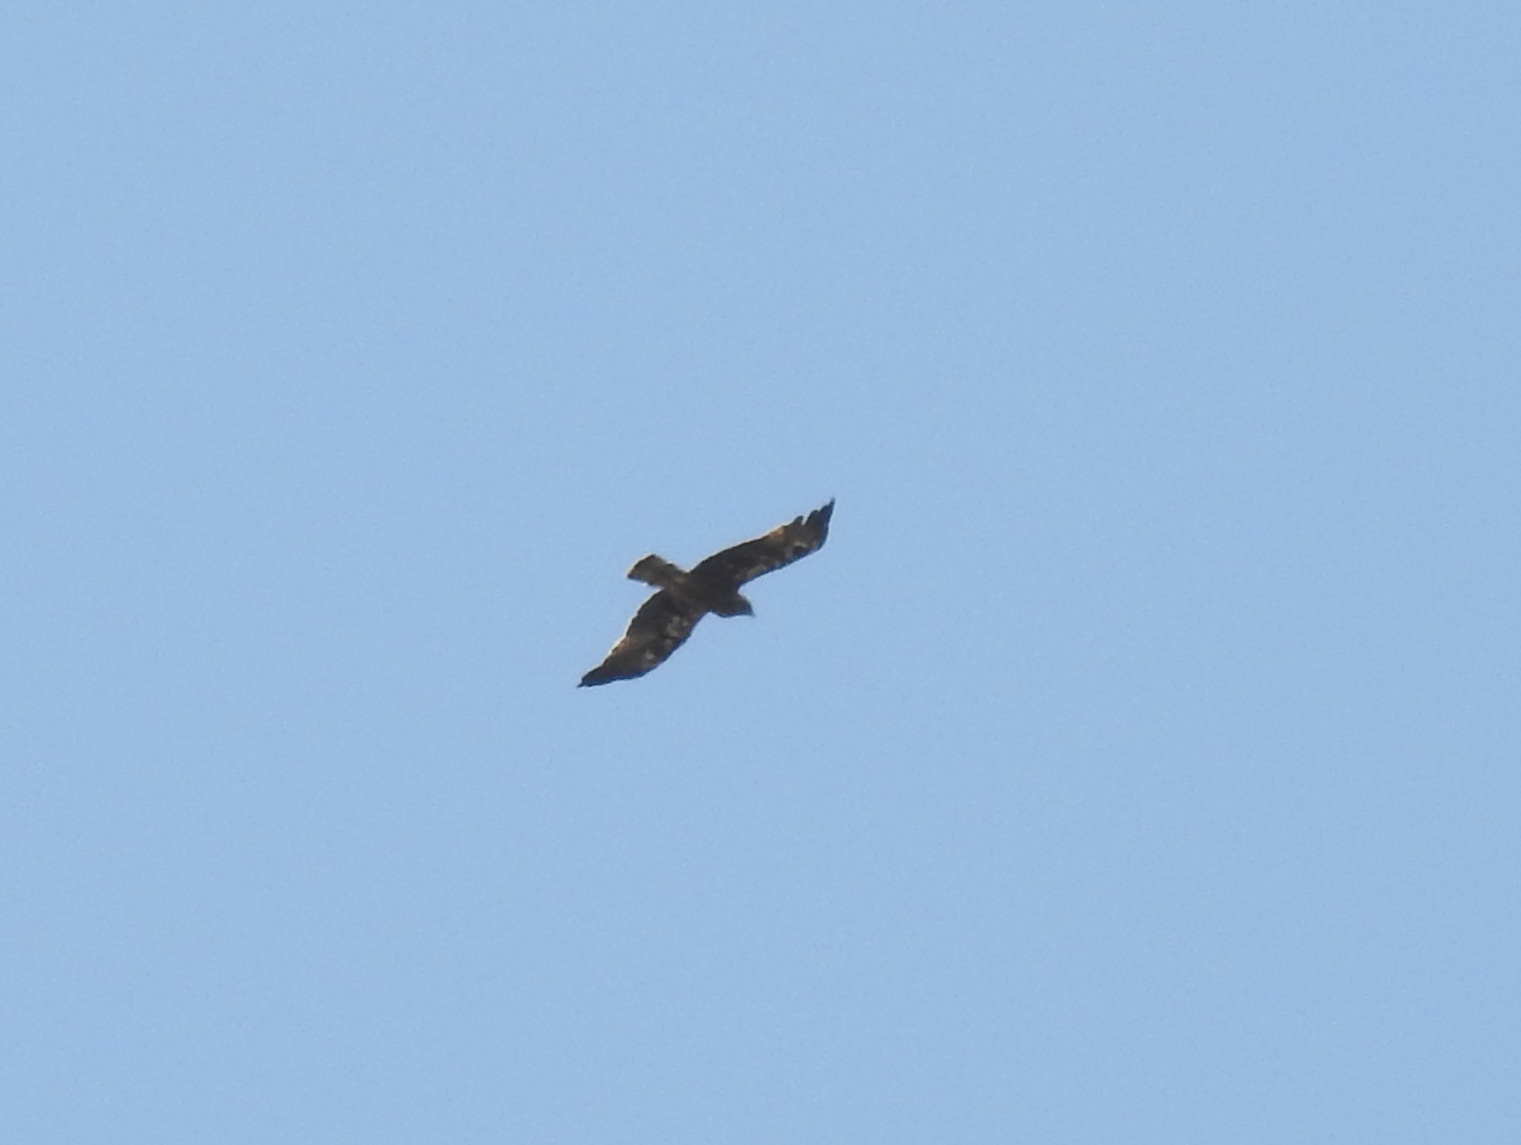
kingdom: Animalia
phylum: Chordata
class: Aves
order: Accipitriformes
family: Accipitridae
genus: Hieraaetus
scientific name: Hieraaetus pennatus
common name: Booted eagle
